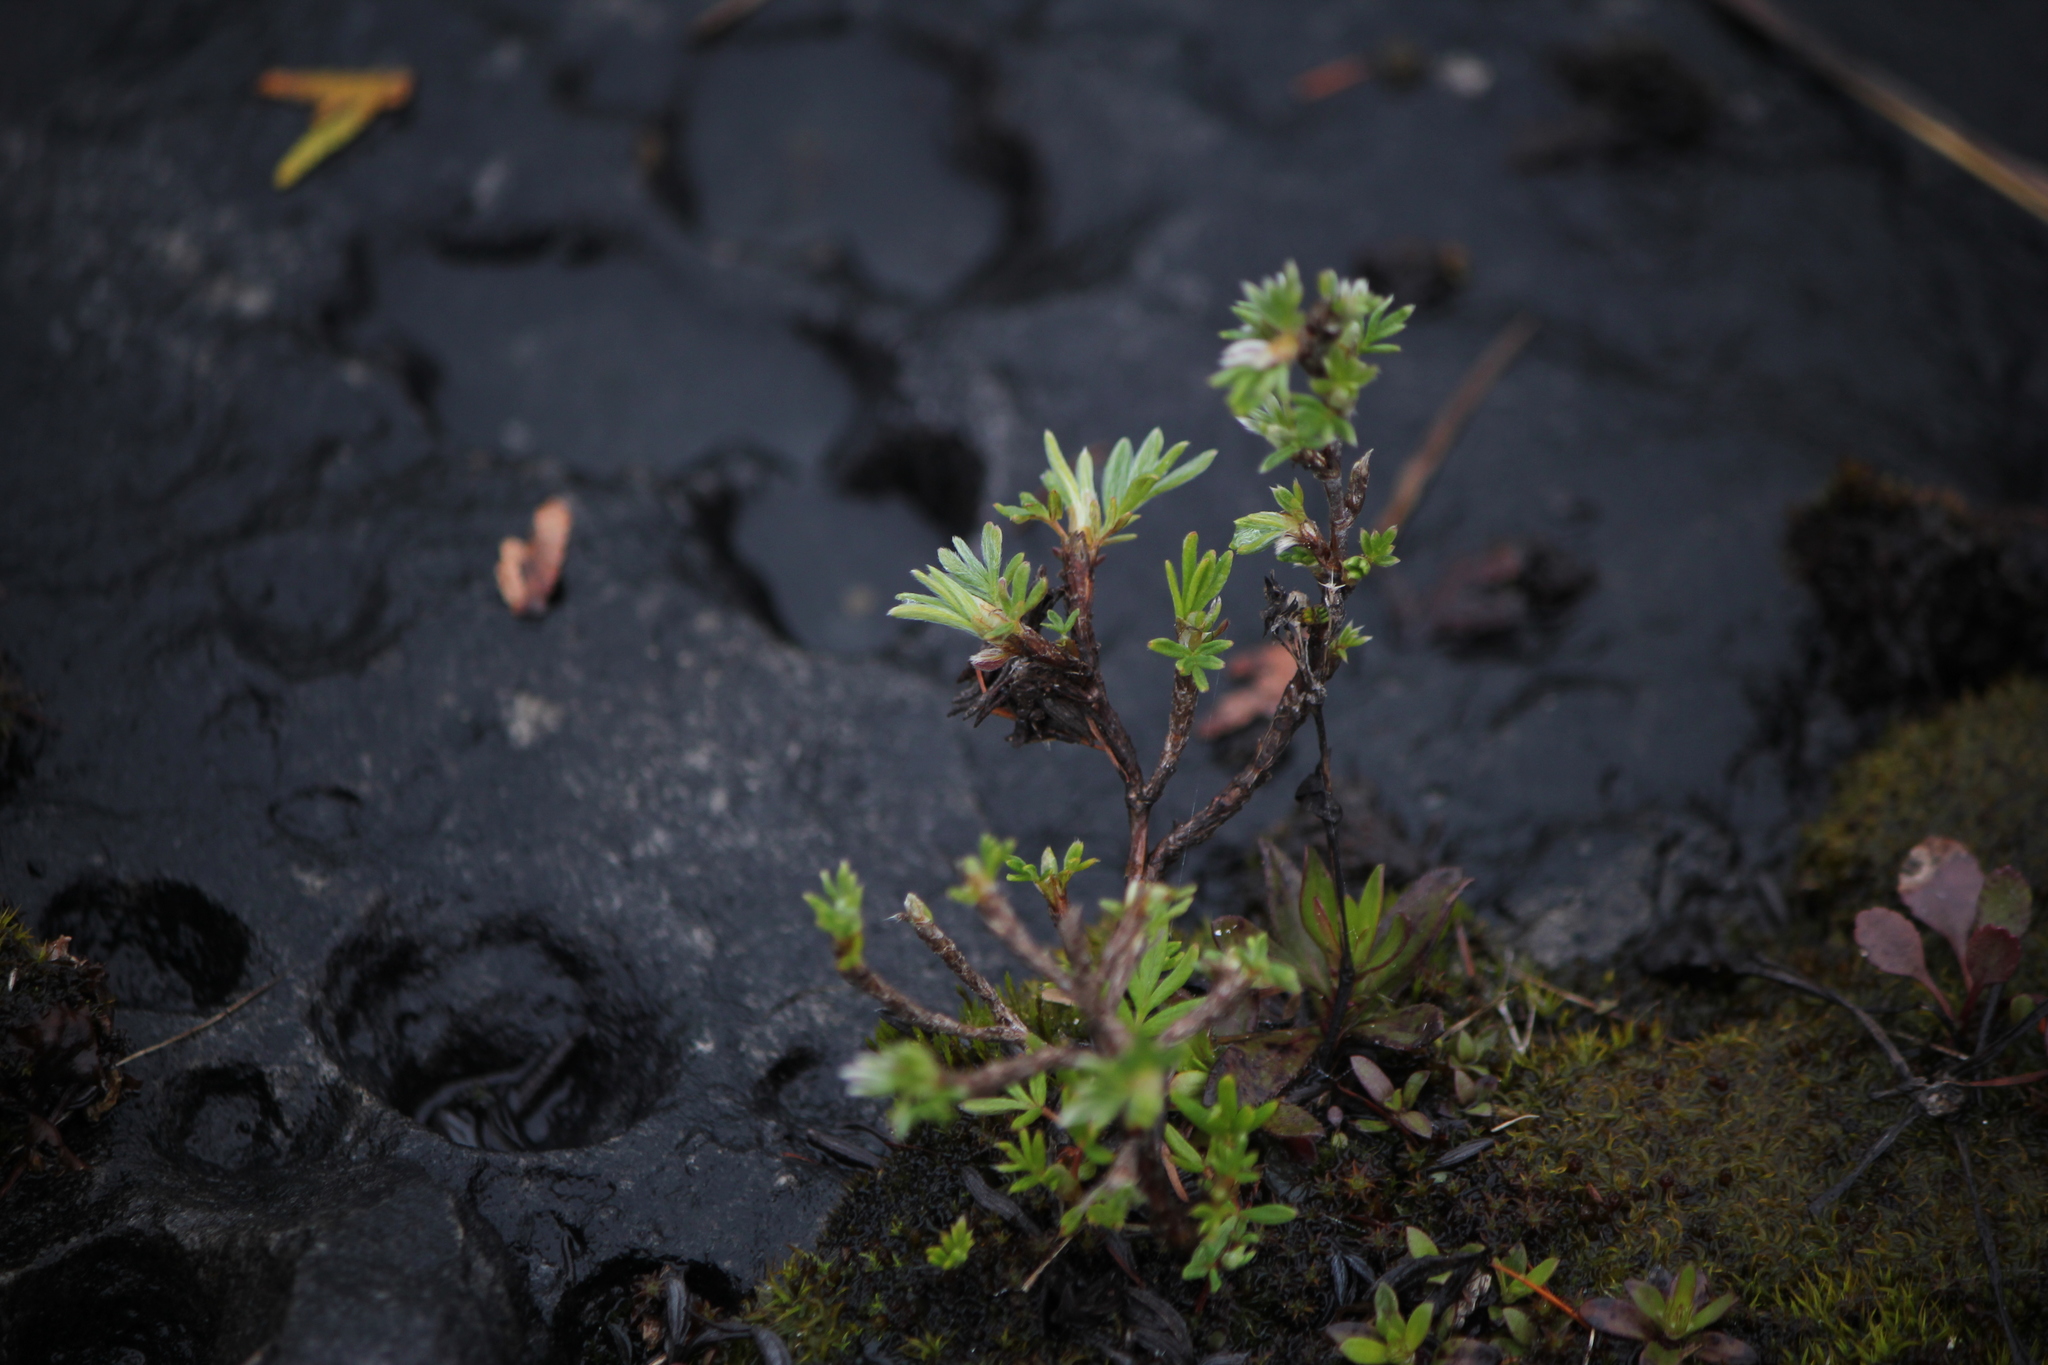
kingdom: Plantae
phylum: Tracheophyta
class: Magnoliopsida
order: Rosales
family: Rosaceae
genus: Dasiphora
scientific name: Dasiphora fruticosa
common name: Shrubby cinquefoil
